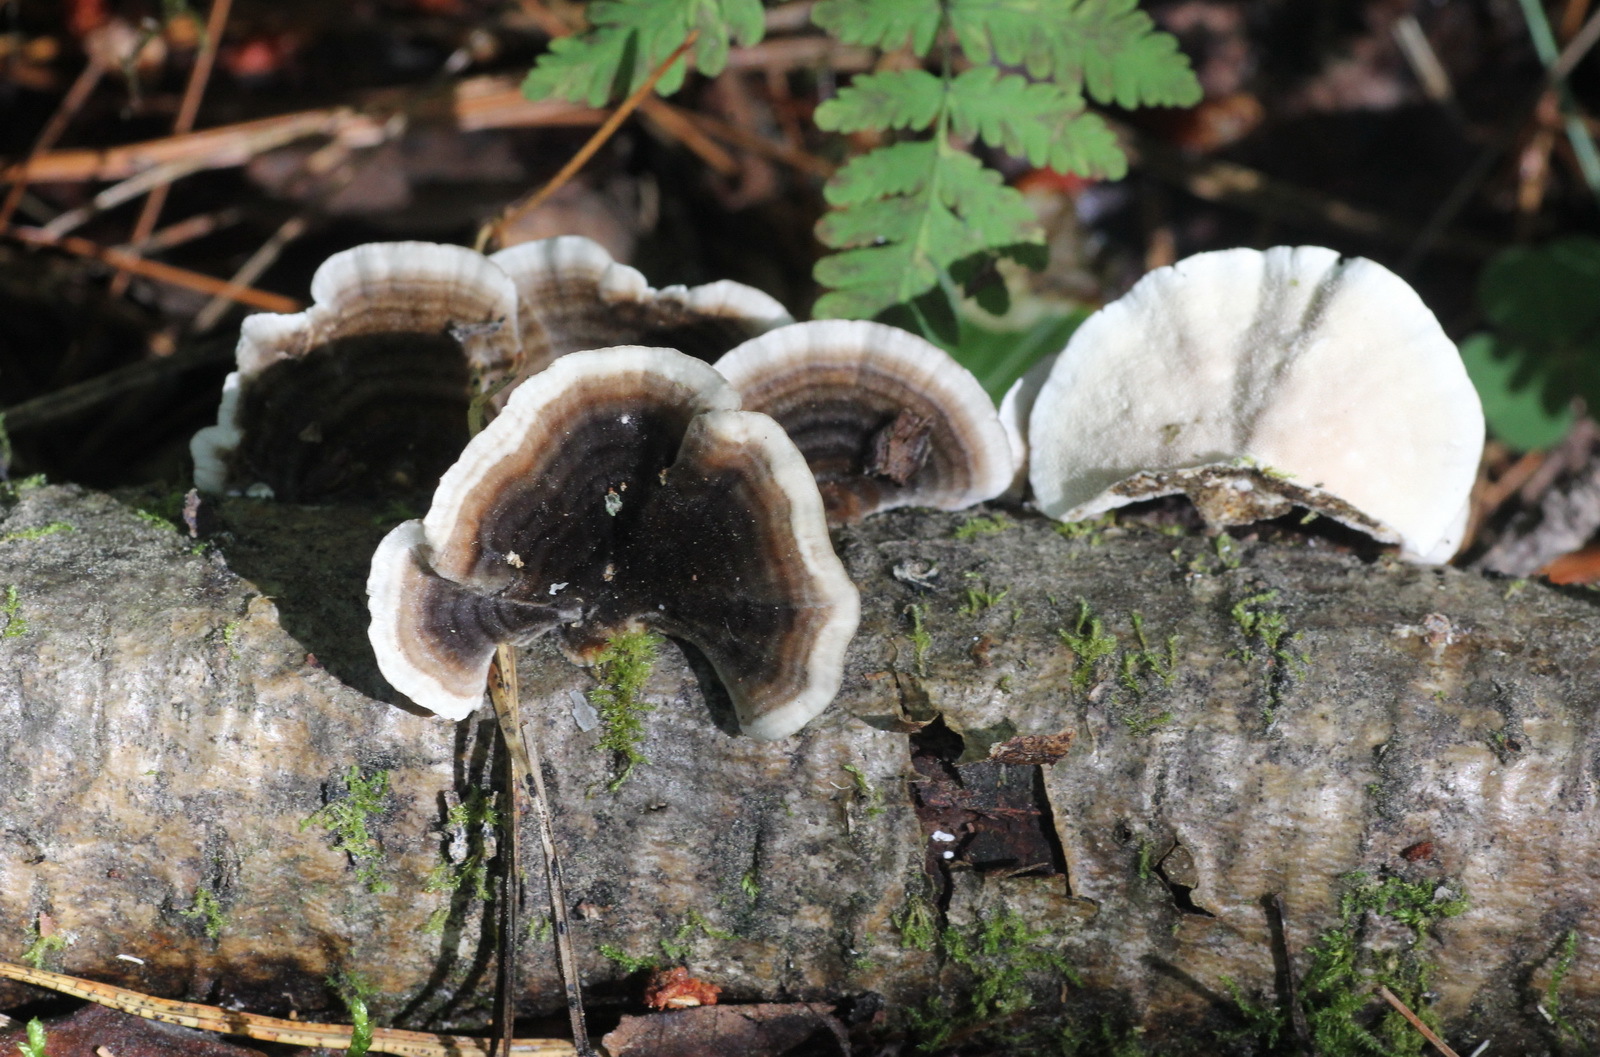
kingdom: Fungi
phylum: Basidiomycota
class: Agaricomycetes
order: Polyporales
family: Polyporaceae
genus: Trametes
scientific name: Trametes versicolor
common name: Turkeytail
